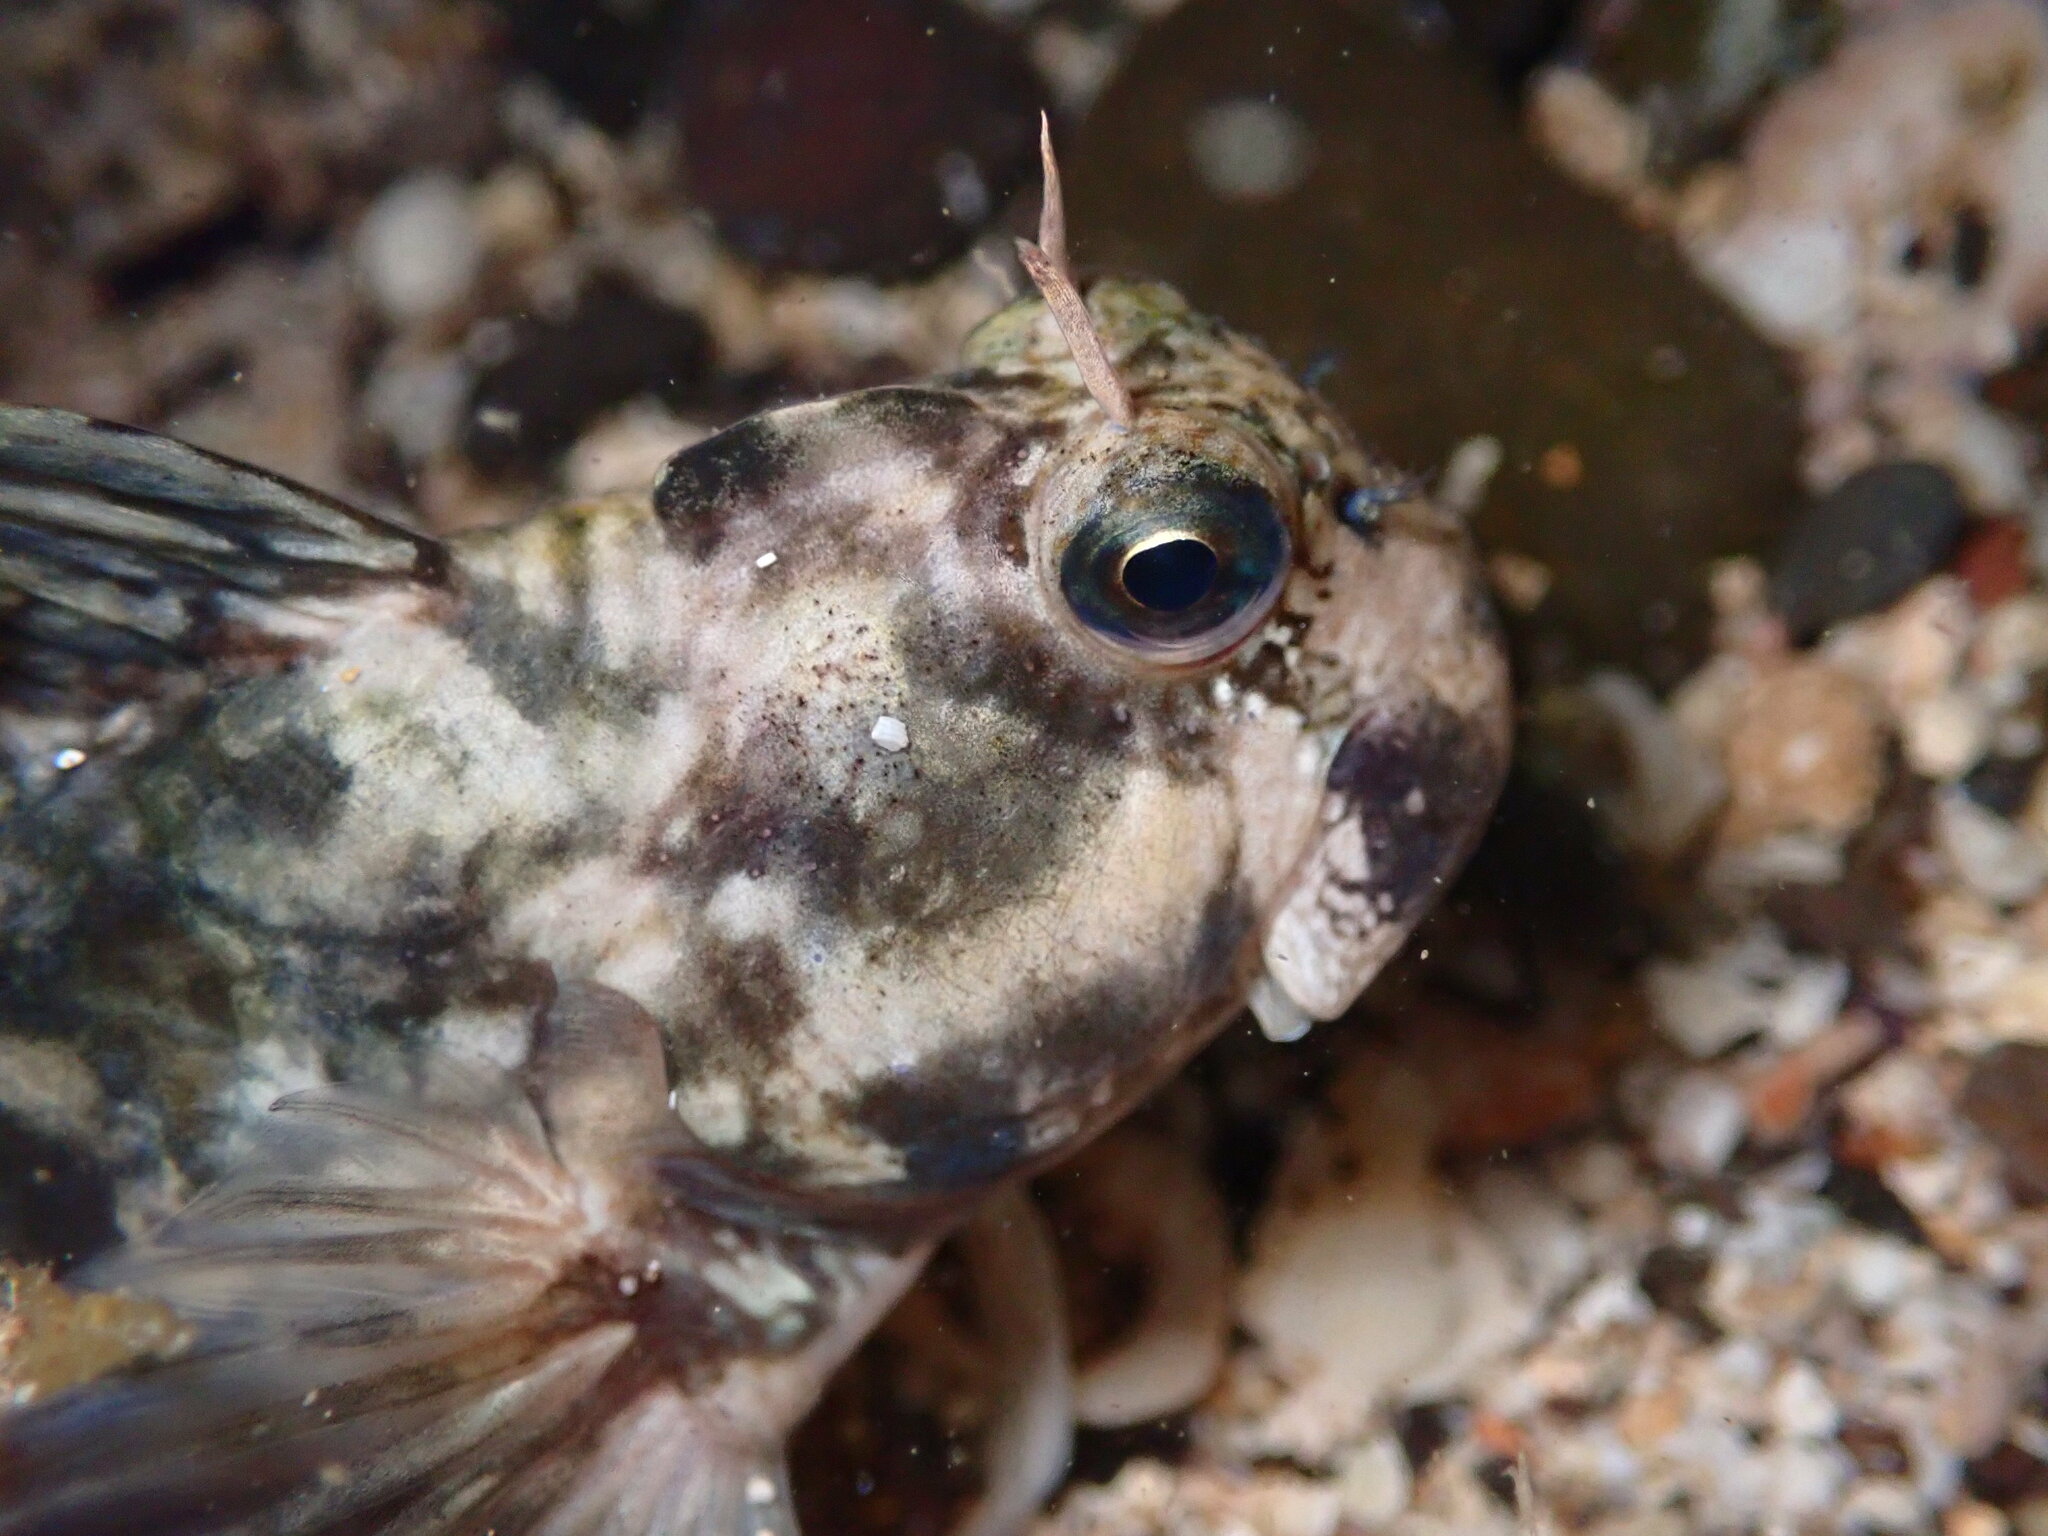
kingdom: Animalia
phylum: Chordata
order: Perciformes
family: Blenniidae
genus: Istiblennius
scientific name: Istiblennius zebra
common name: Zebra blenny
